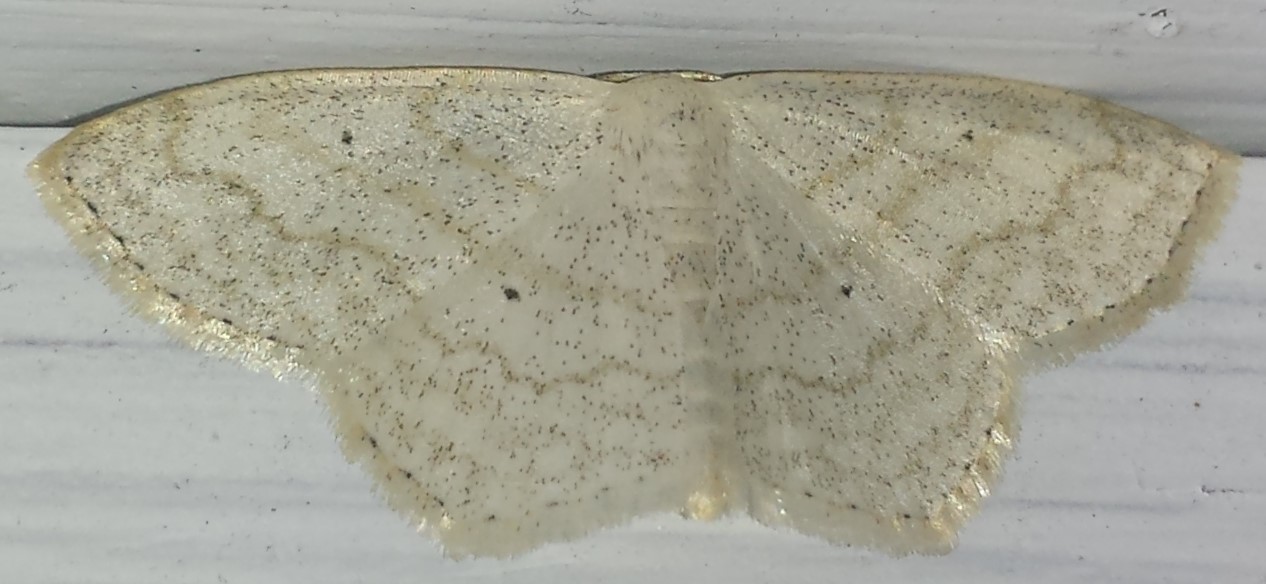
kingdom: Animalia
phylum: Arthropoda
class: Insecta
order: Lepidoptera
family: Geometridae
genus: Scopula
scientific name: Scopula limboundata
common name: Large lace border
